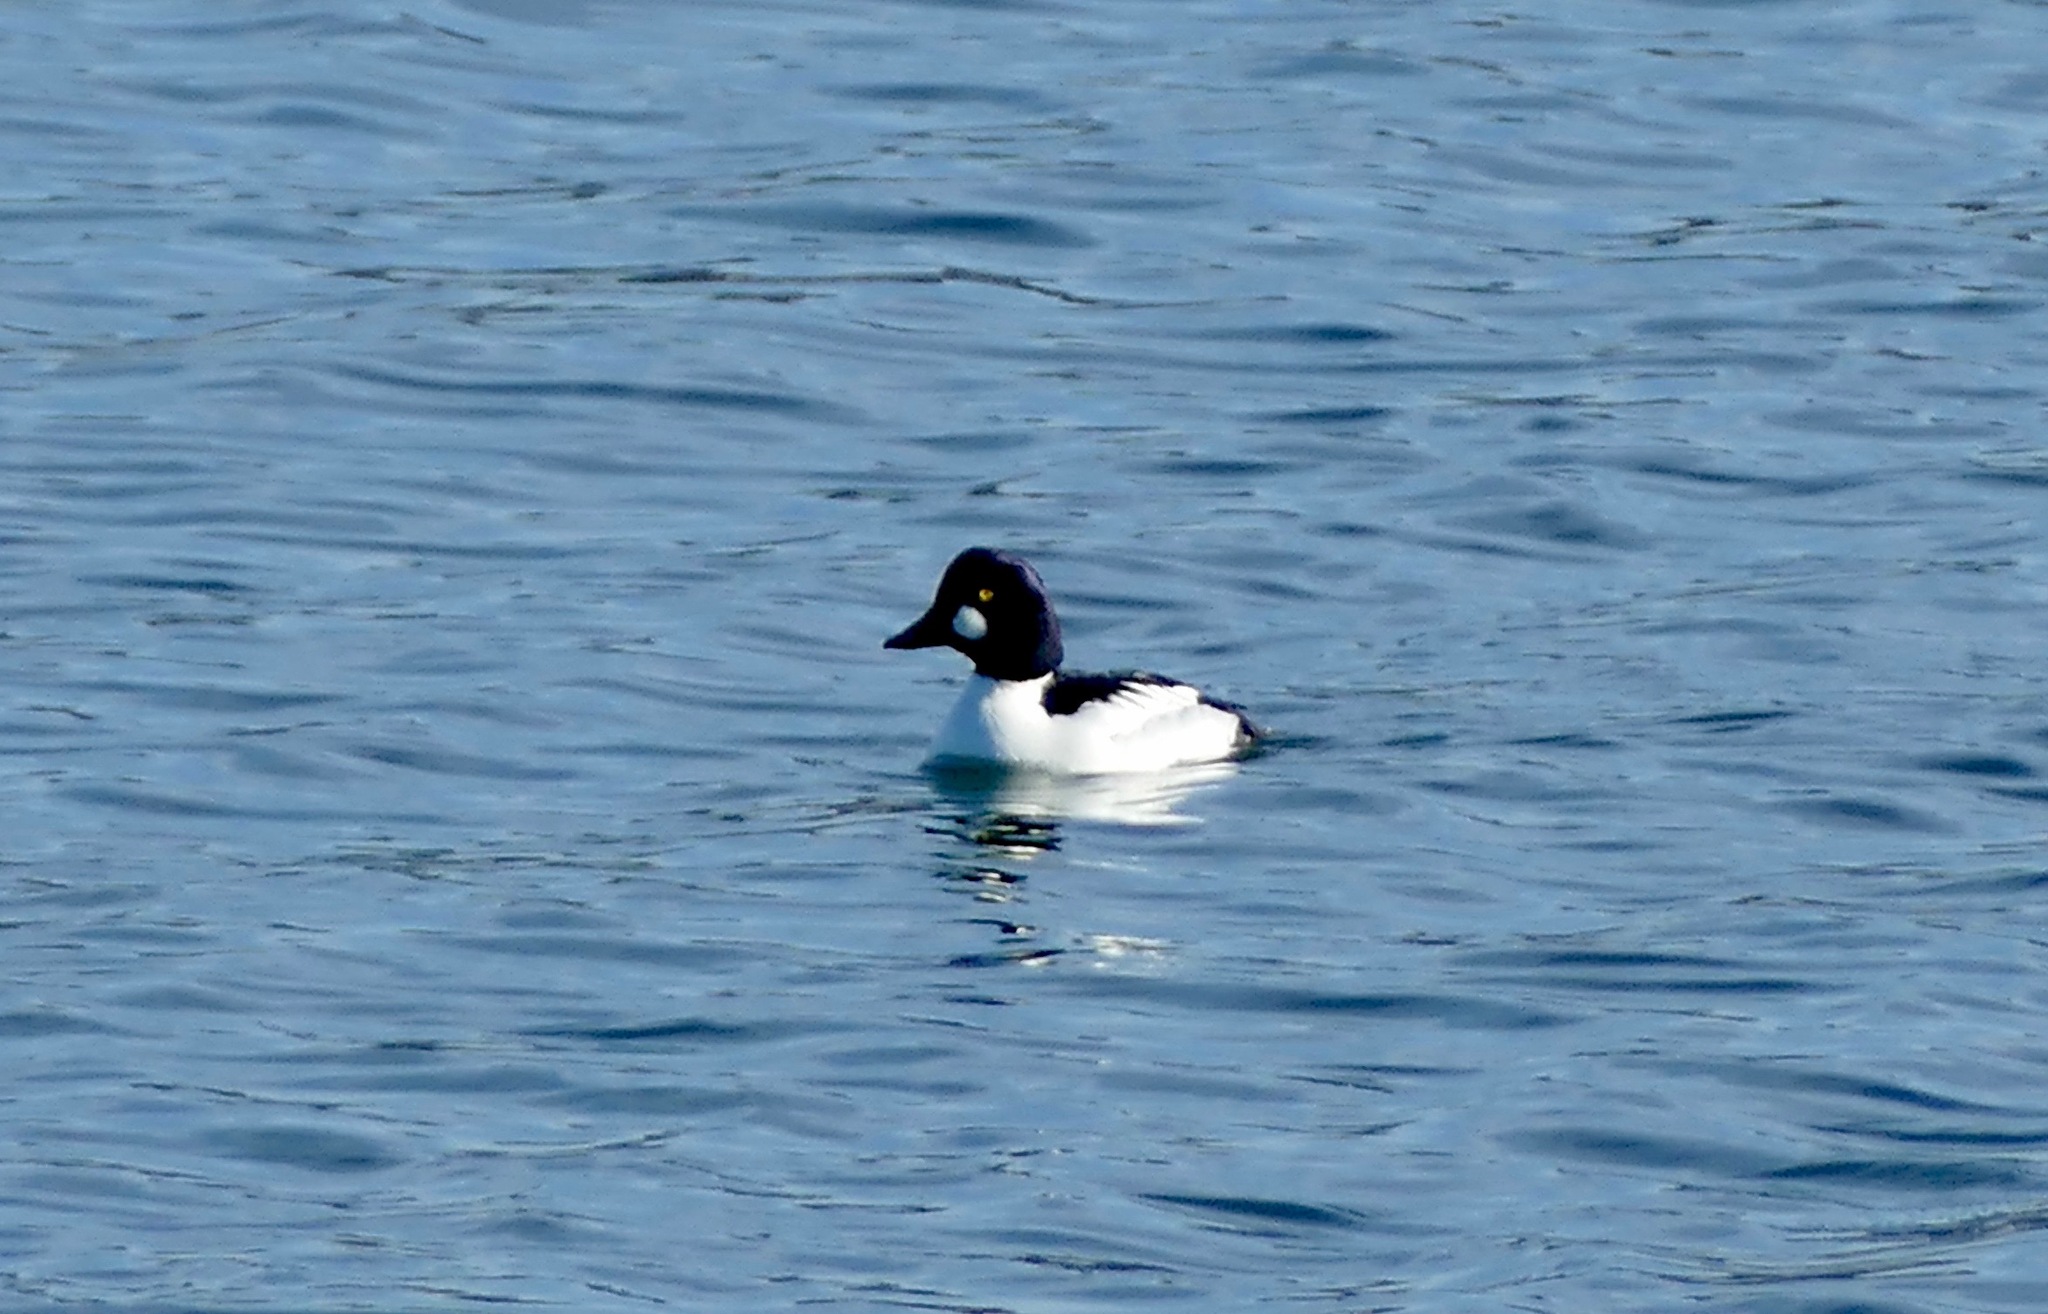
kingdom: Animalia
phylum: Chordata
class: Aves
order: Anseriformes
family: Anatidae
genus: Bucephala
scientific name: Bucephala clangula
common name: Common goldeneye
